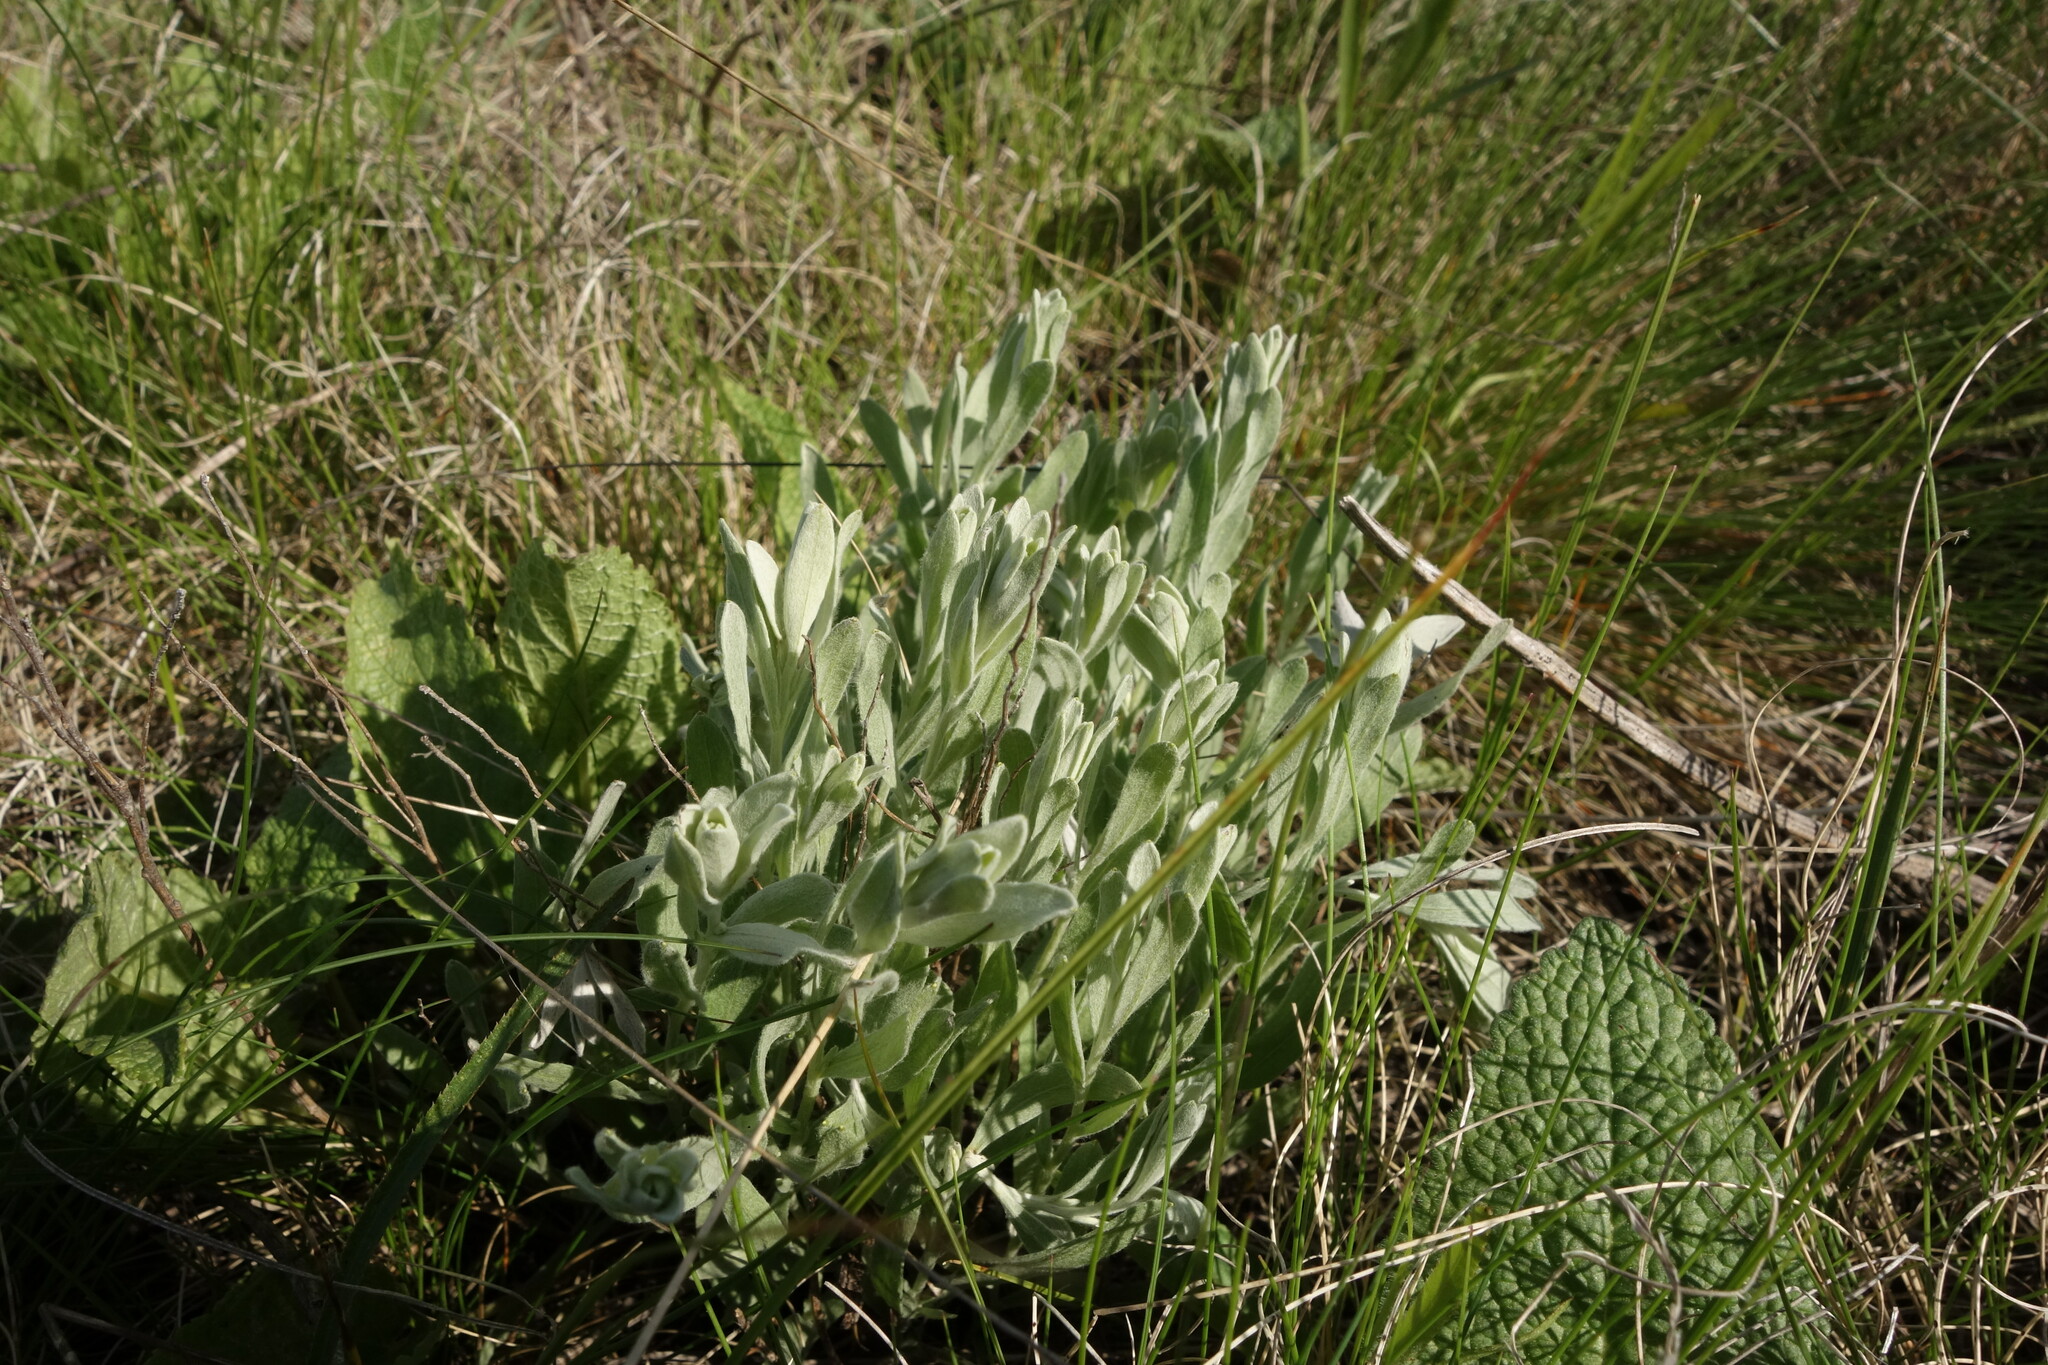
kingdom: Plantae
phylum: Tracheophyta
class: Magnoliopsida
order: Asterales
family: Asteraceae
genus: Galatella
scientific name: Galatella villosa
